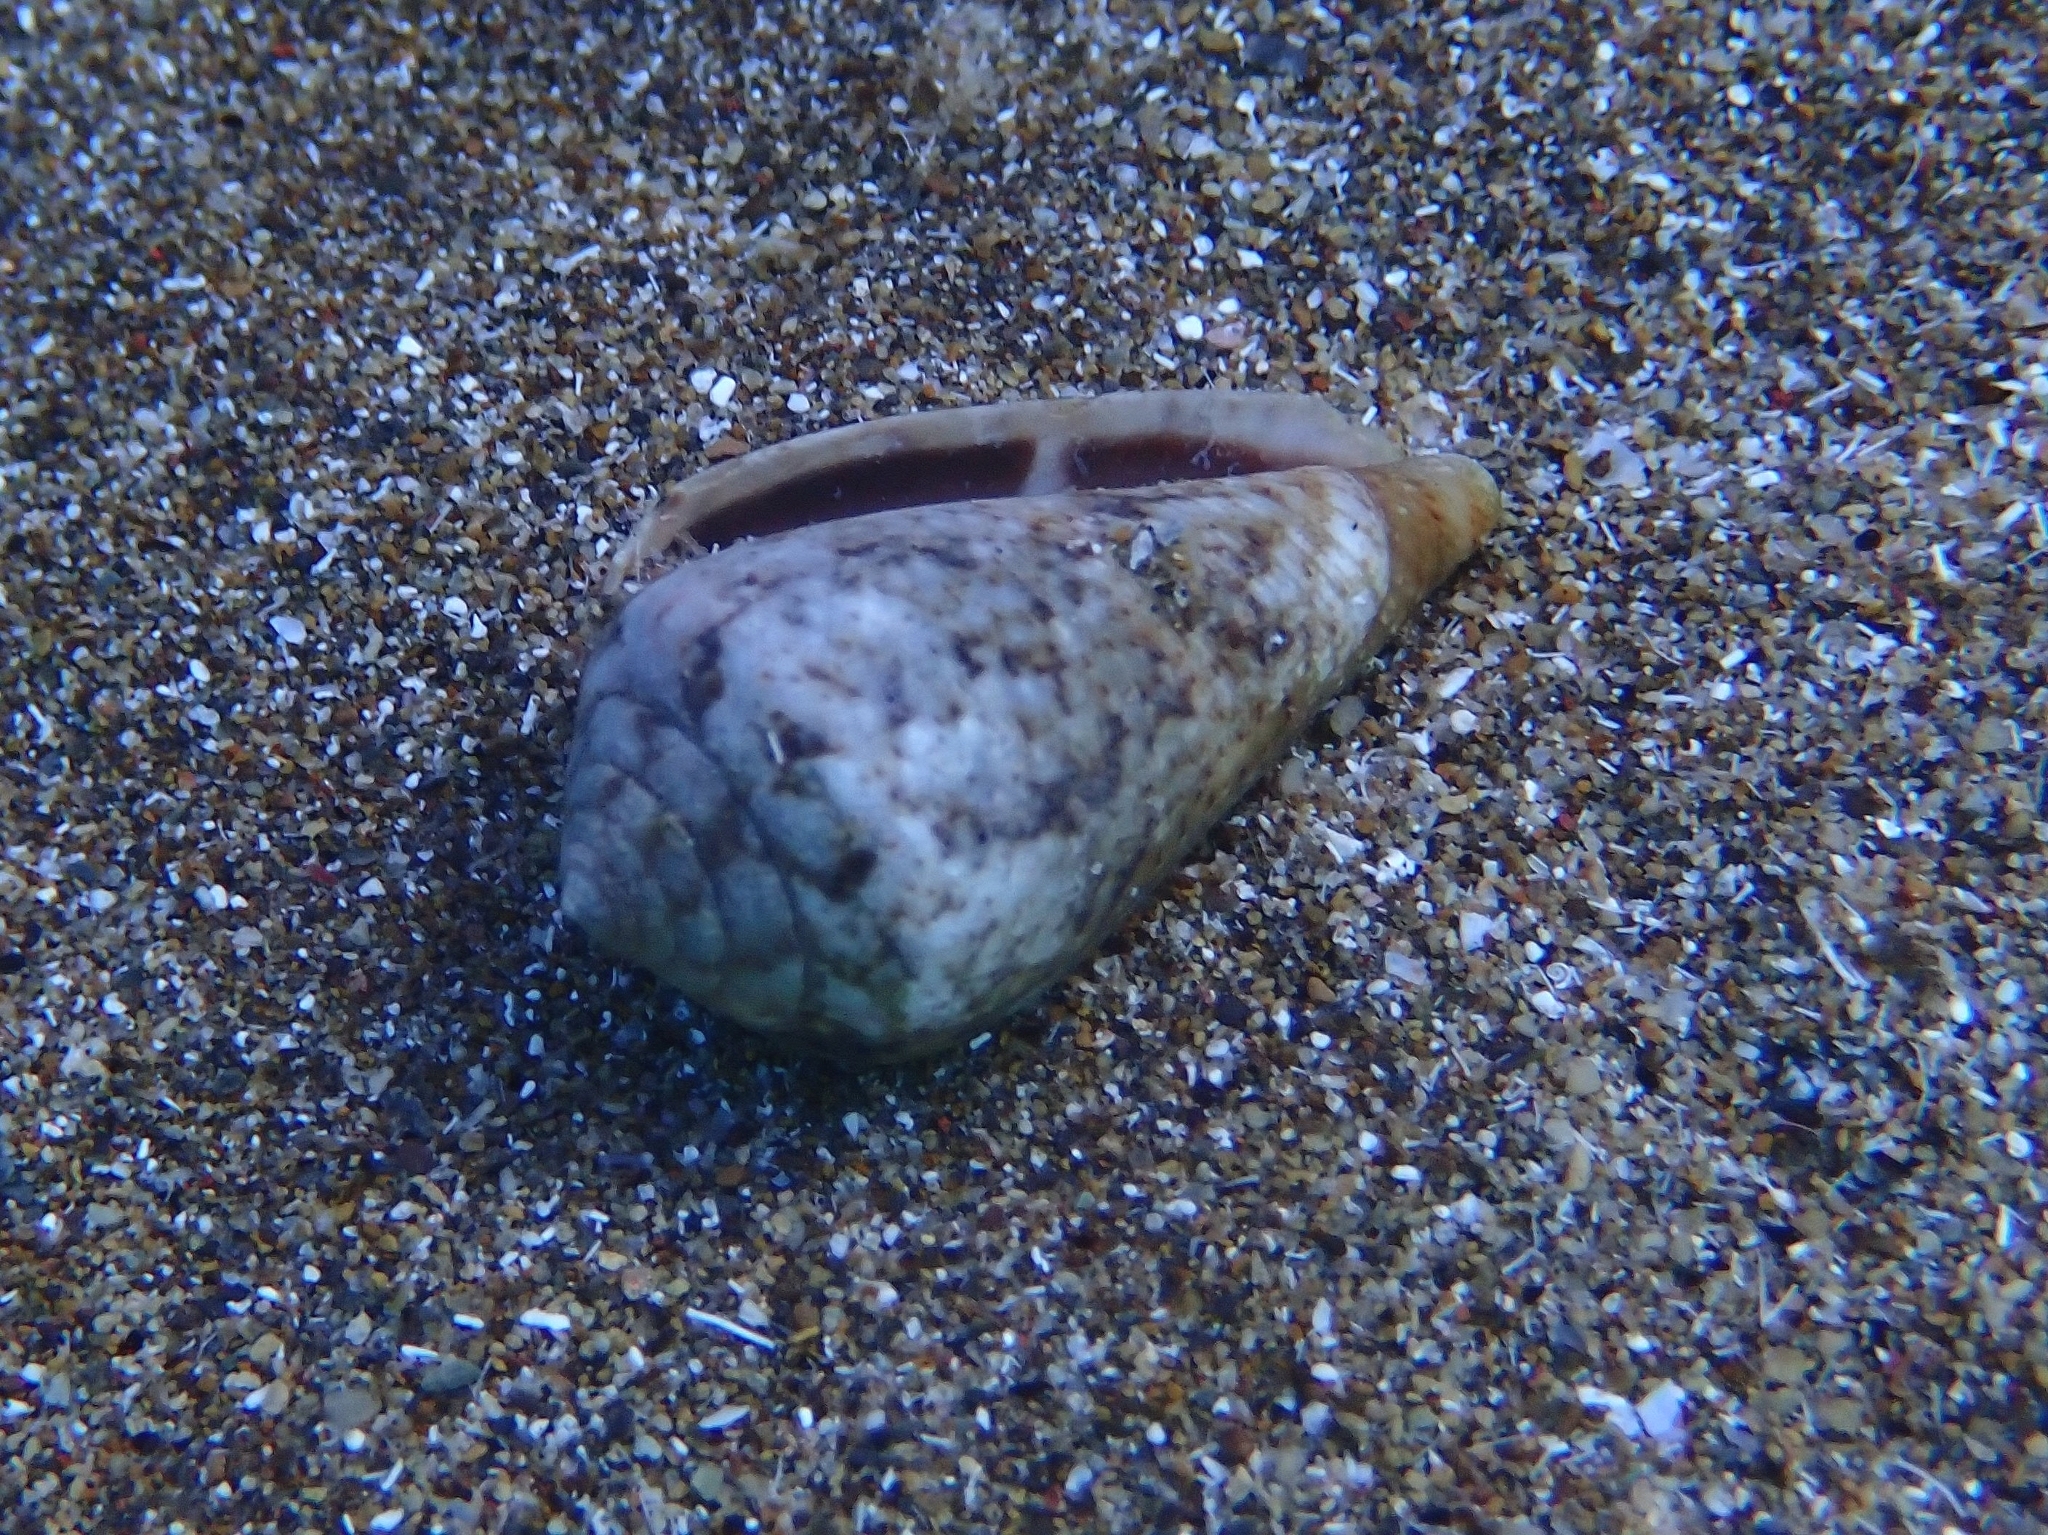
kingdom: Animalia
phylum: Mollusca
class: Gastropoda
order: Neogastropoda
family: Conidae
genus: Conus
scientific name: Conus guanche
